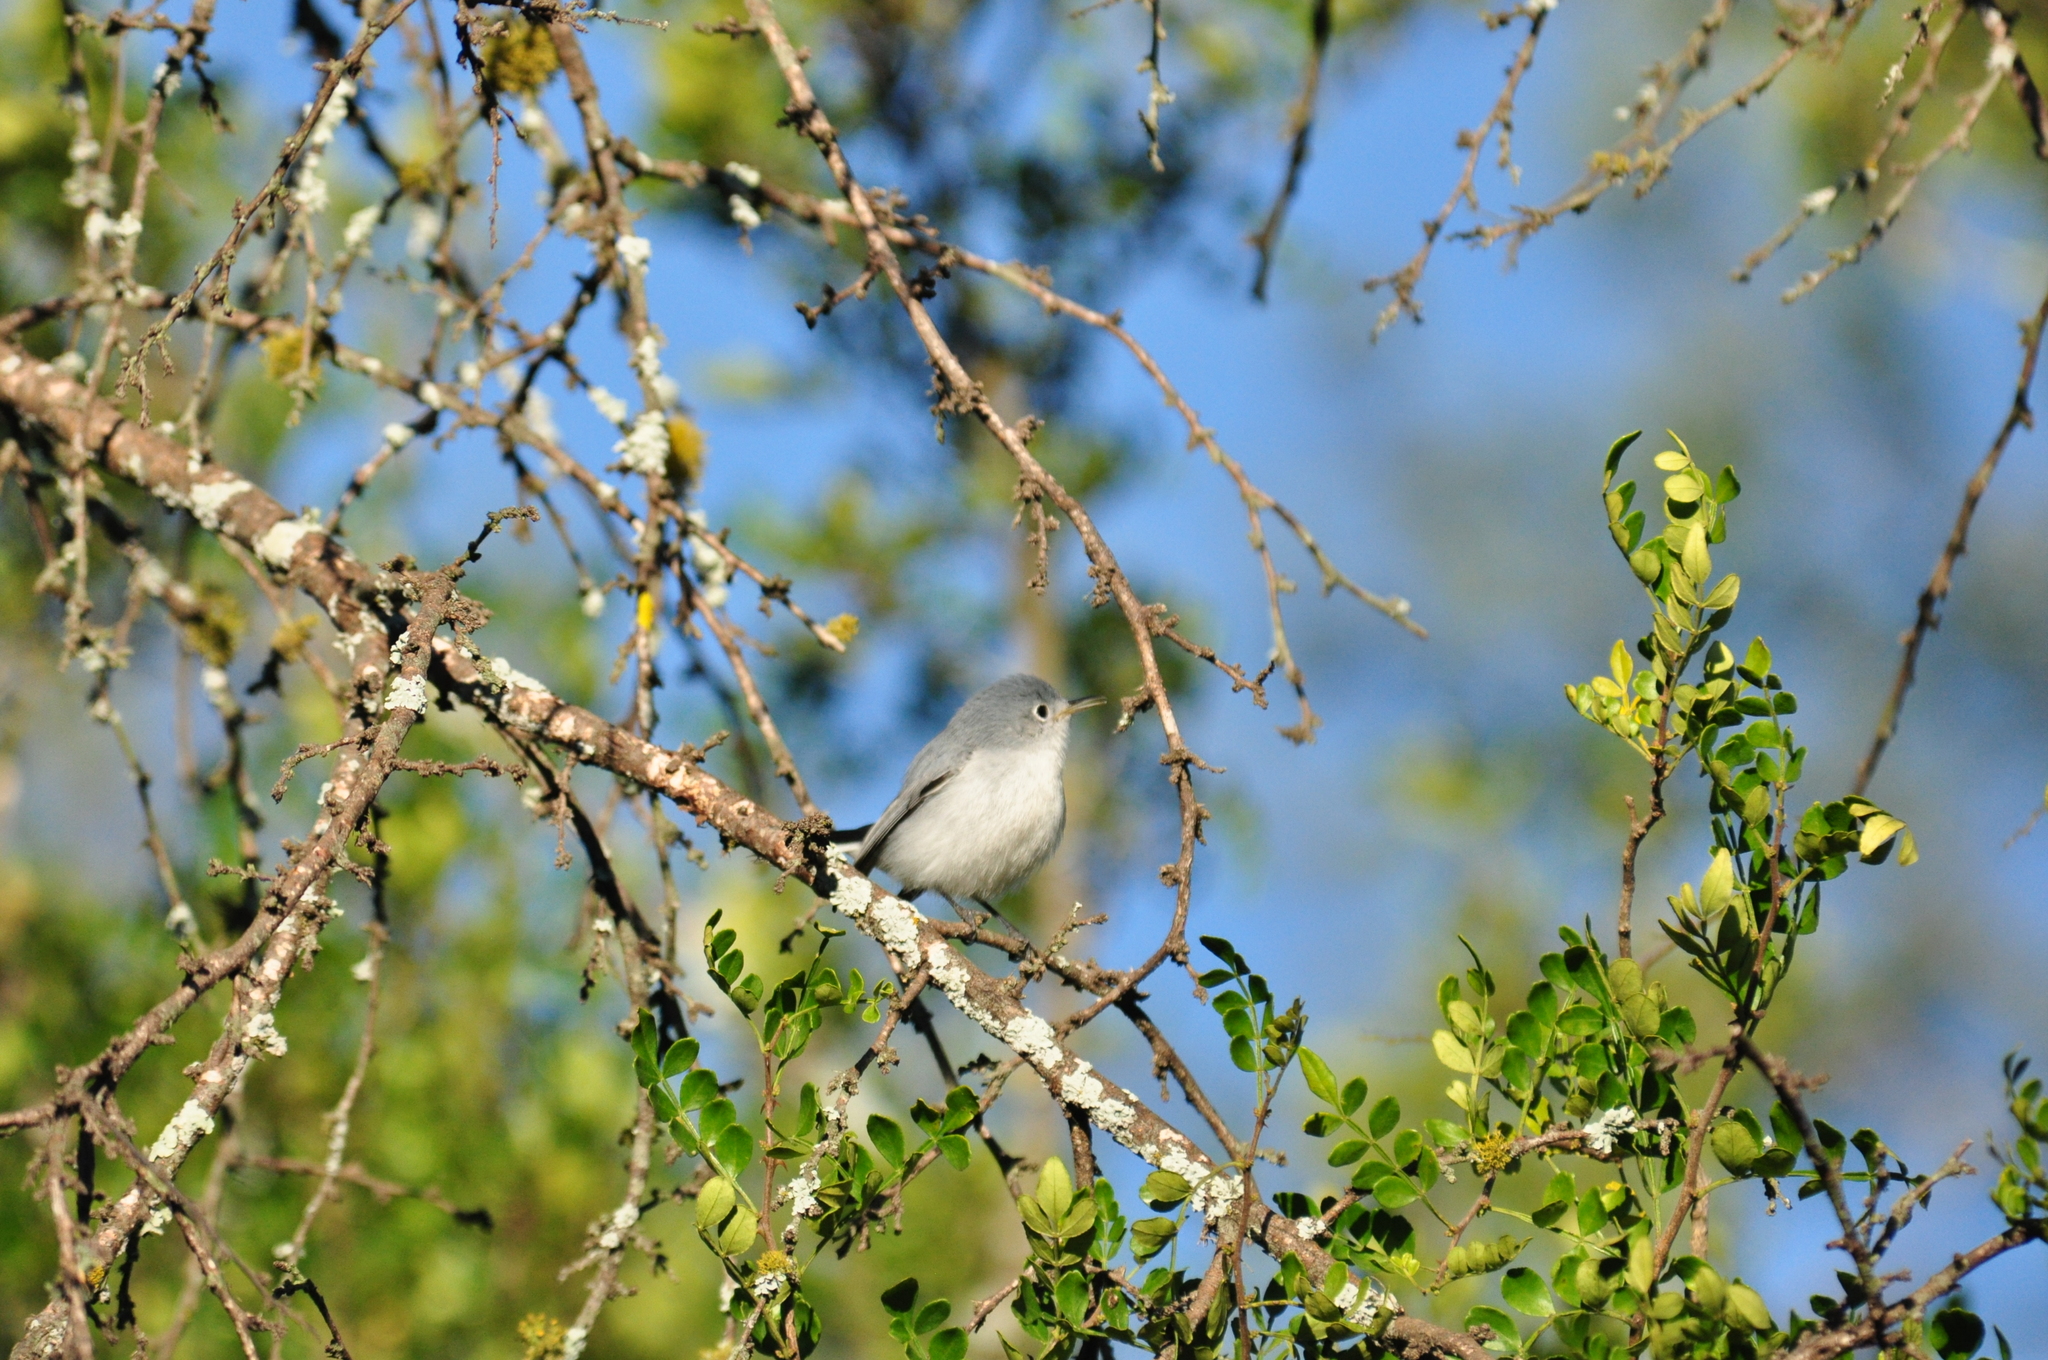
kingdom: Animalia
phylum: Chordata
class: Aves
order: Passeriformes
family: Polioptilidae
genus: Polioptila
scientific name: Polioptila caerulea
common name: Blue-gray gnatcatcher
